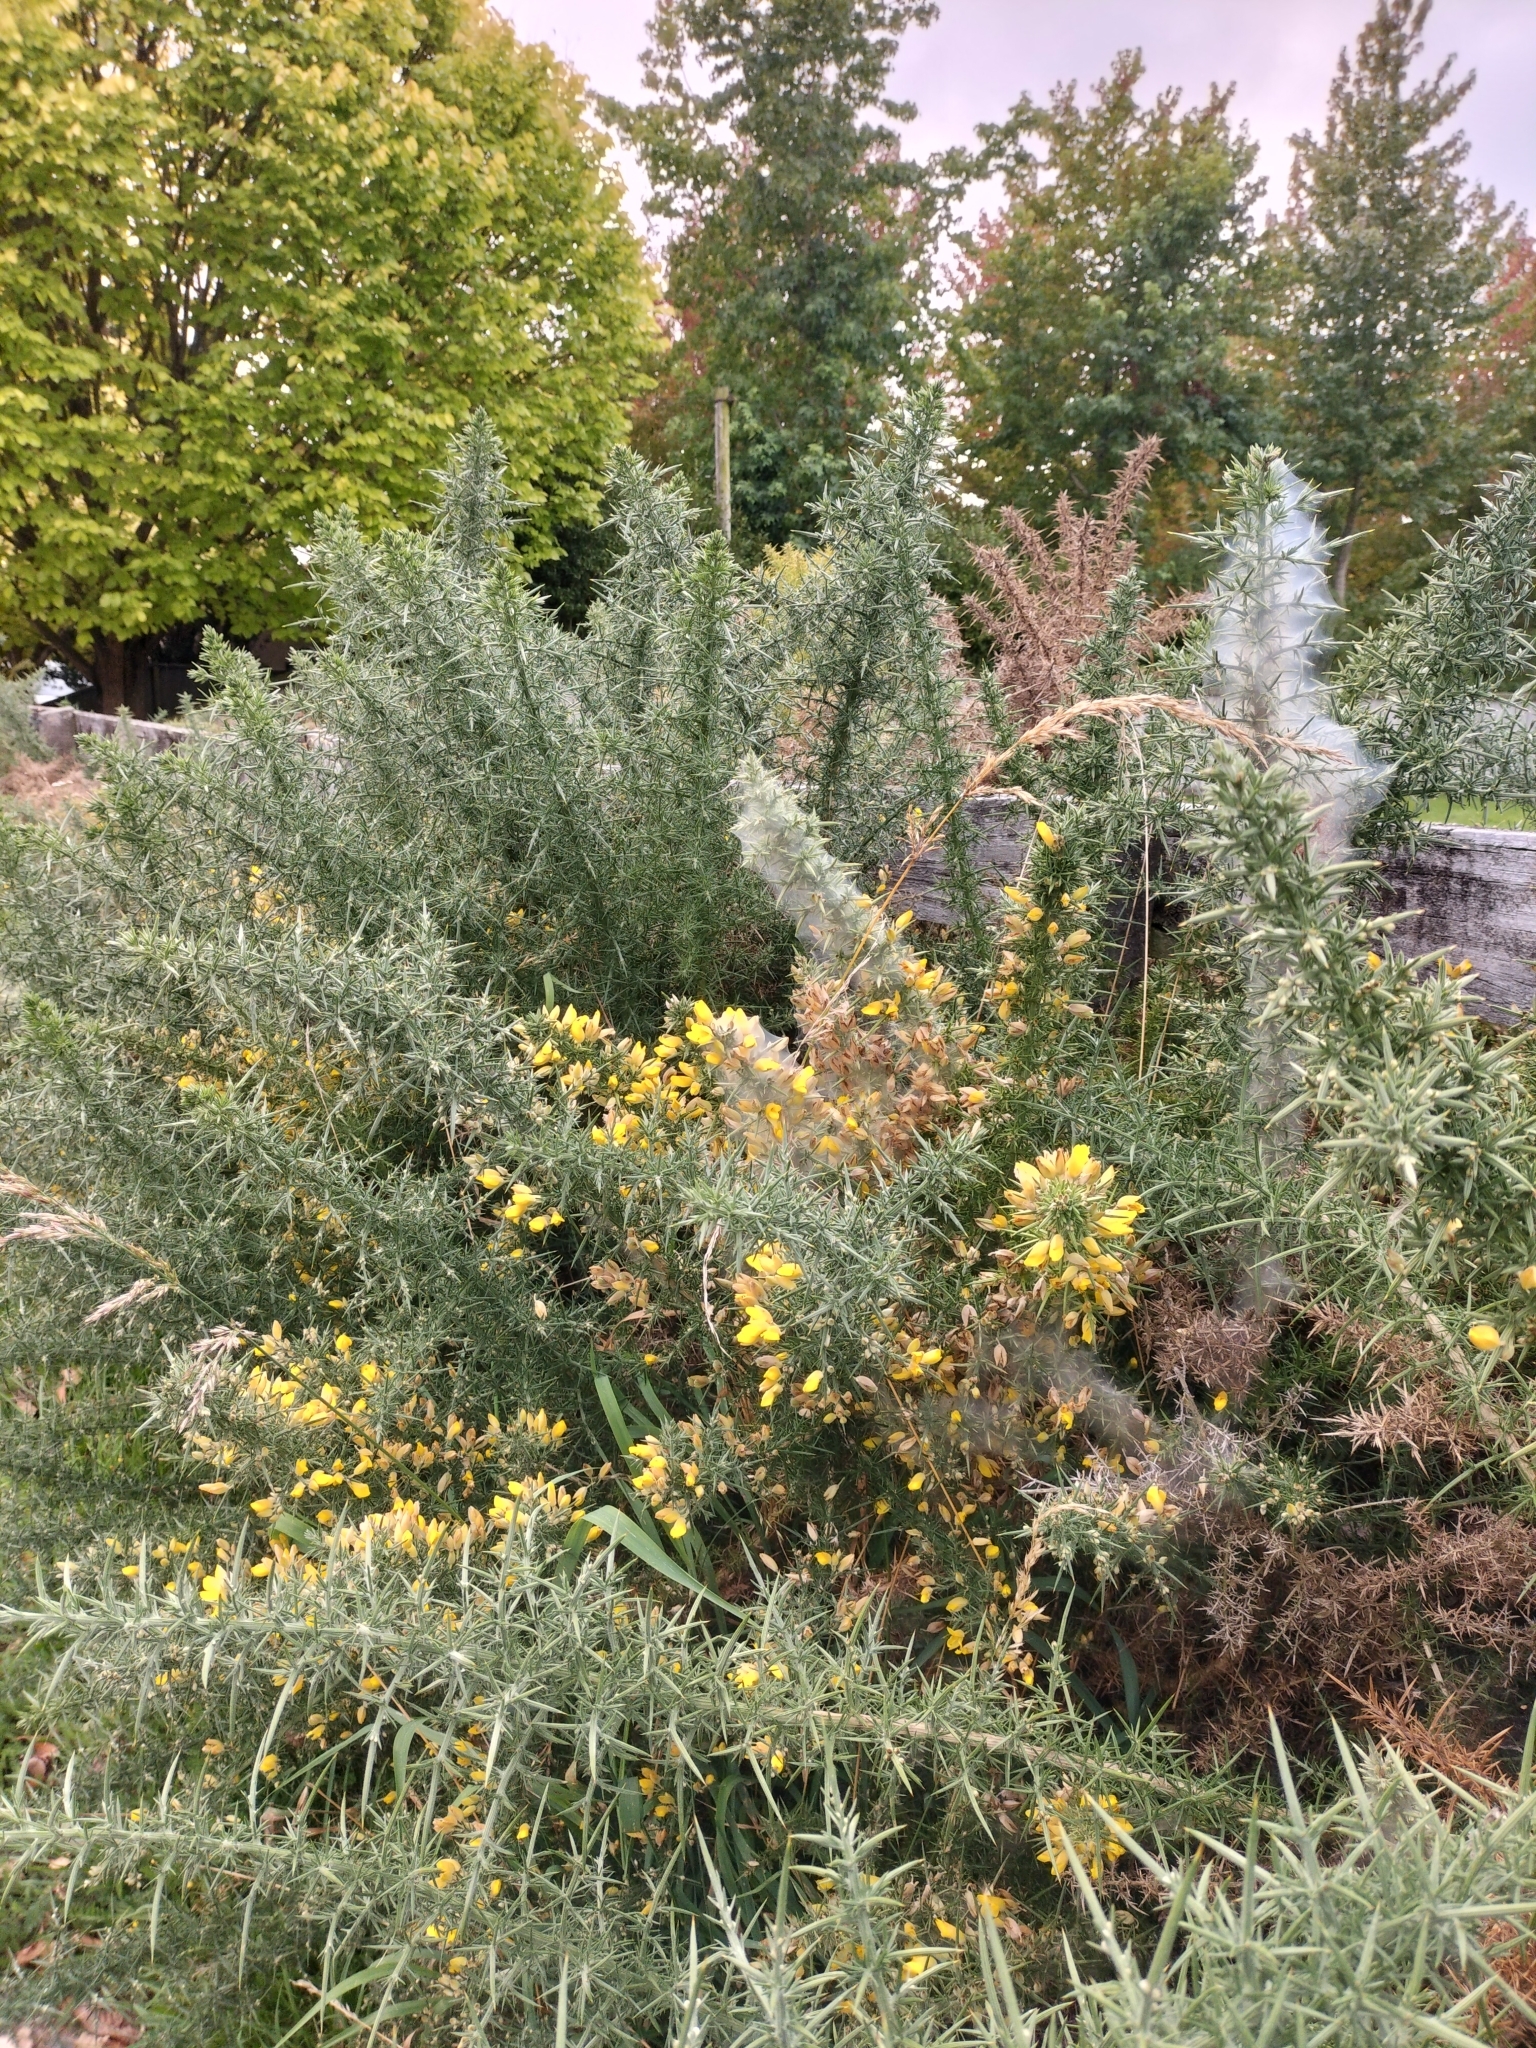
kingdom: Animalia
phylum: Arthropoda
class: Arachnida
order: Trombidiformes
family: Tetranychidae
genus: Tetranychus
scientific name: Tetranychus lintearius
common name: Gorse spider mite
